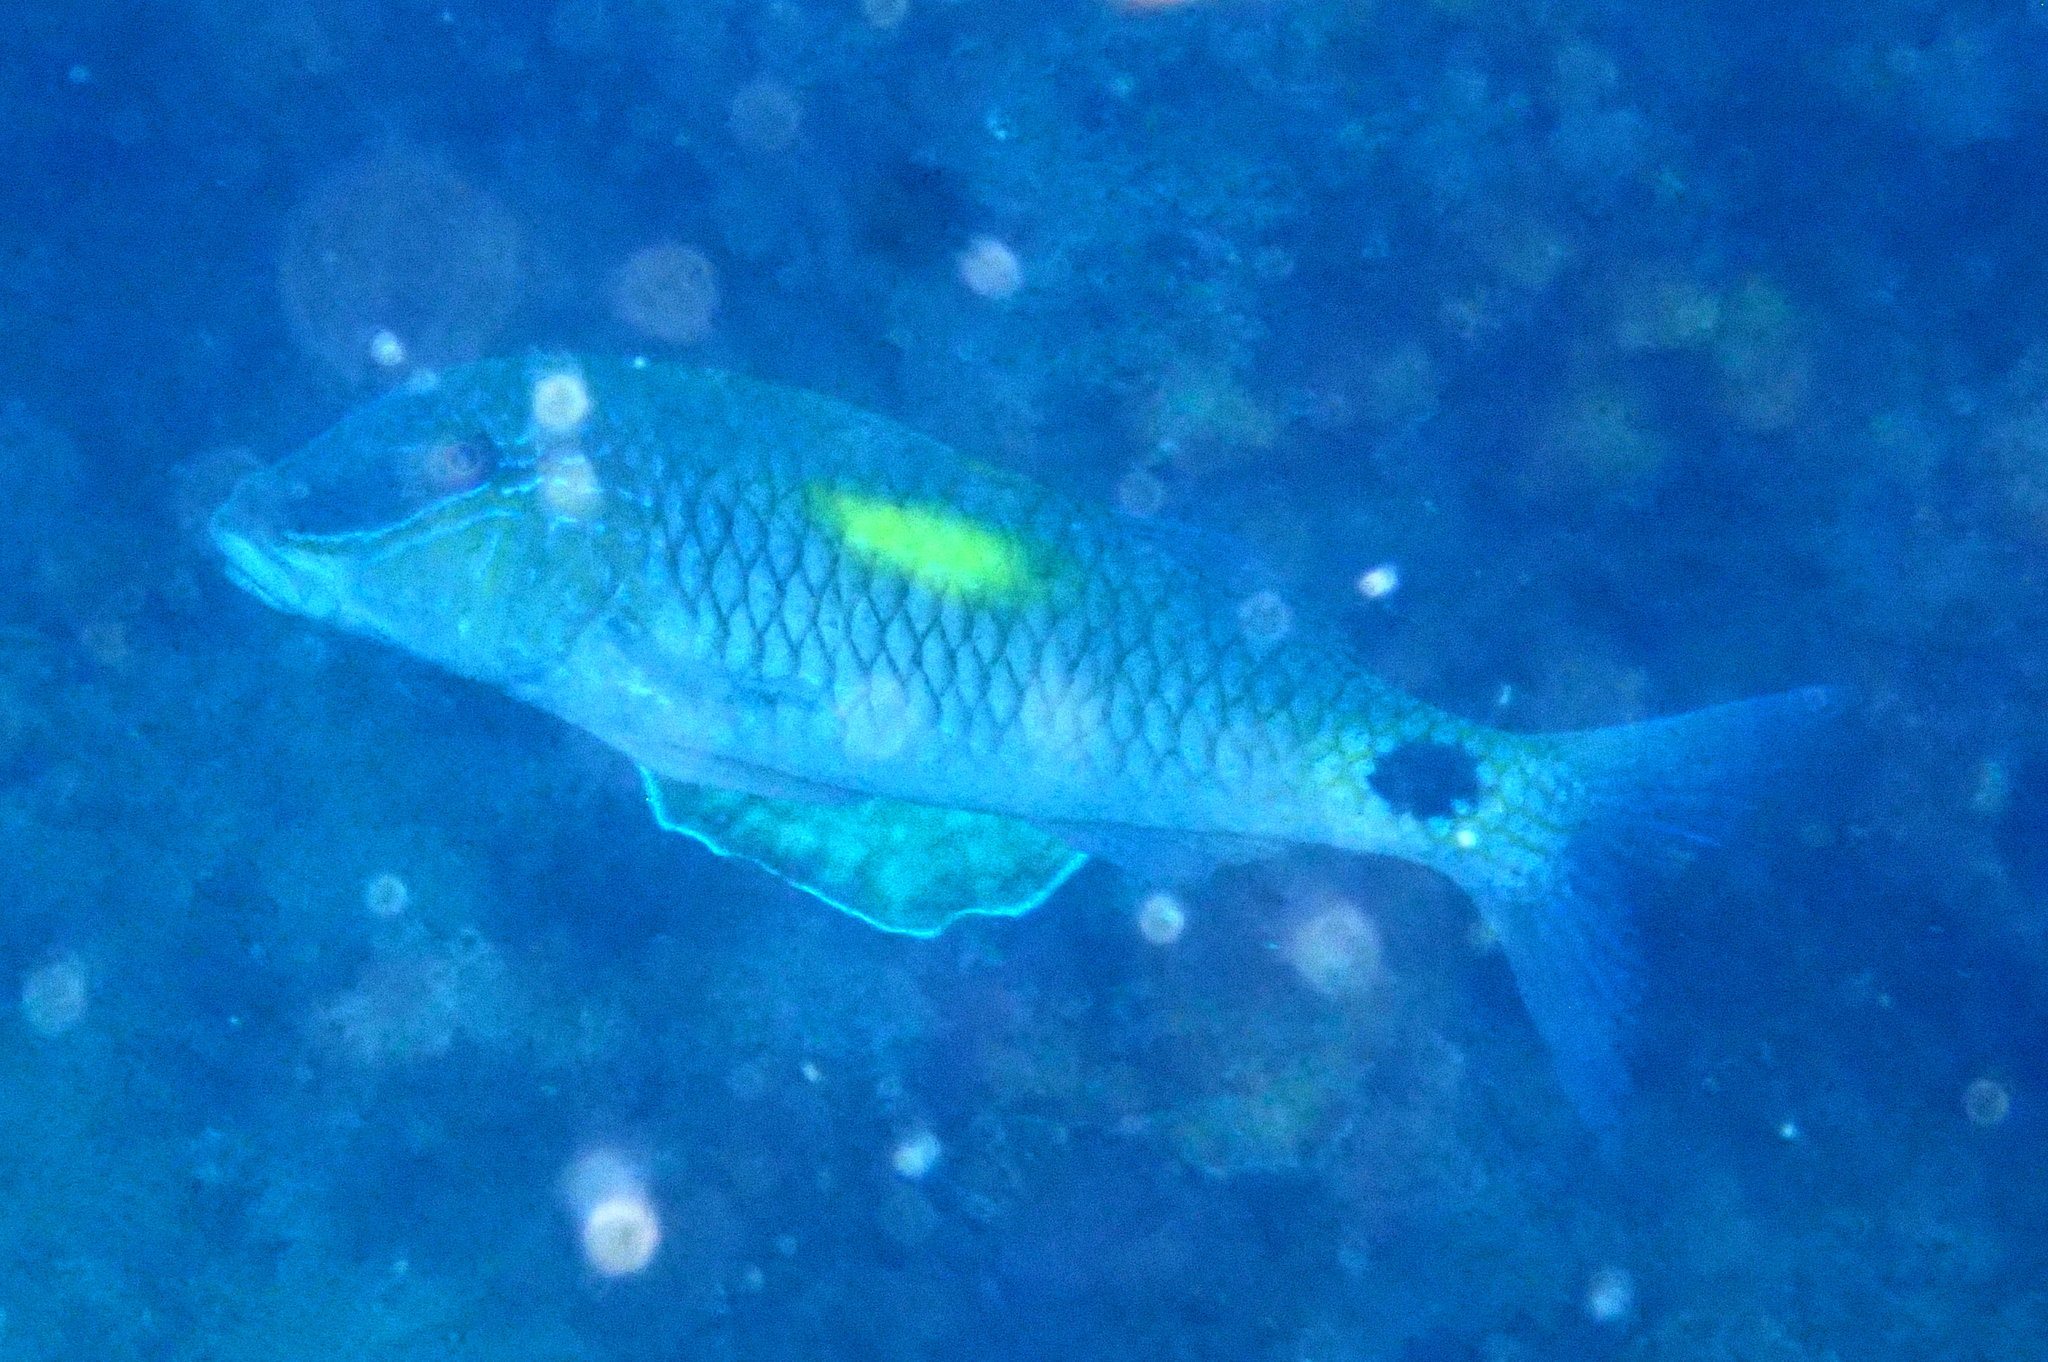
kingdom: Animalia
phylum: Chordata
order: Perciformes
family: Mullidae
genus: Parupeneus
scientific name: Parupeneus indicus
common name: Indian goatfish
